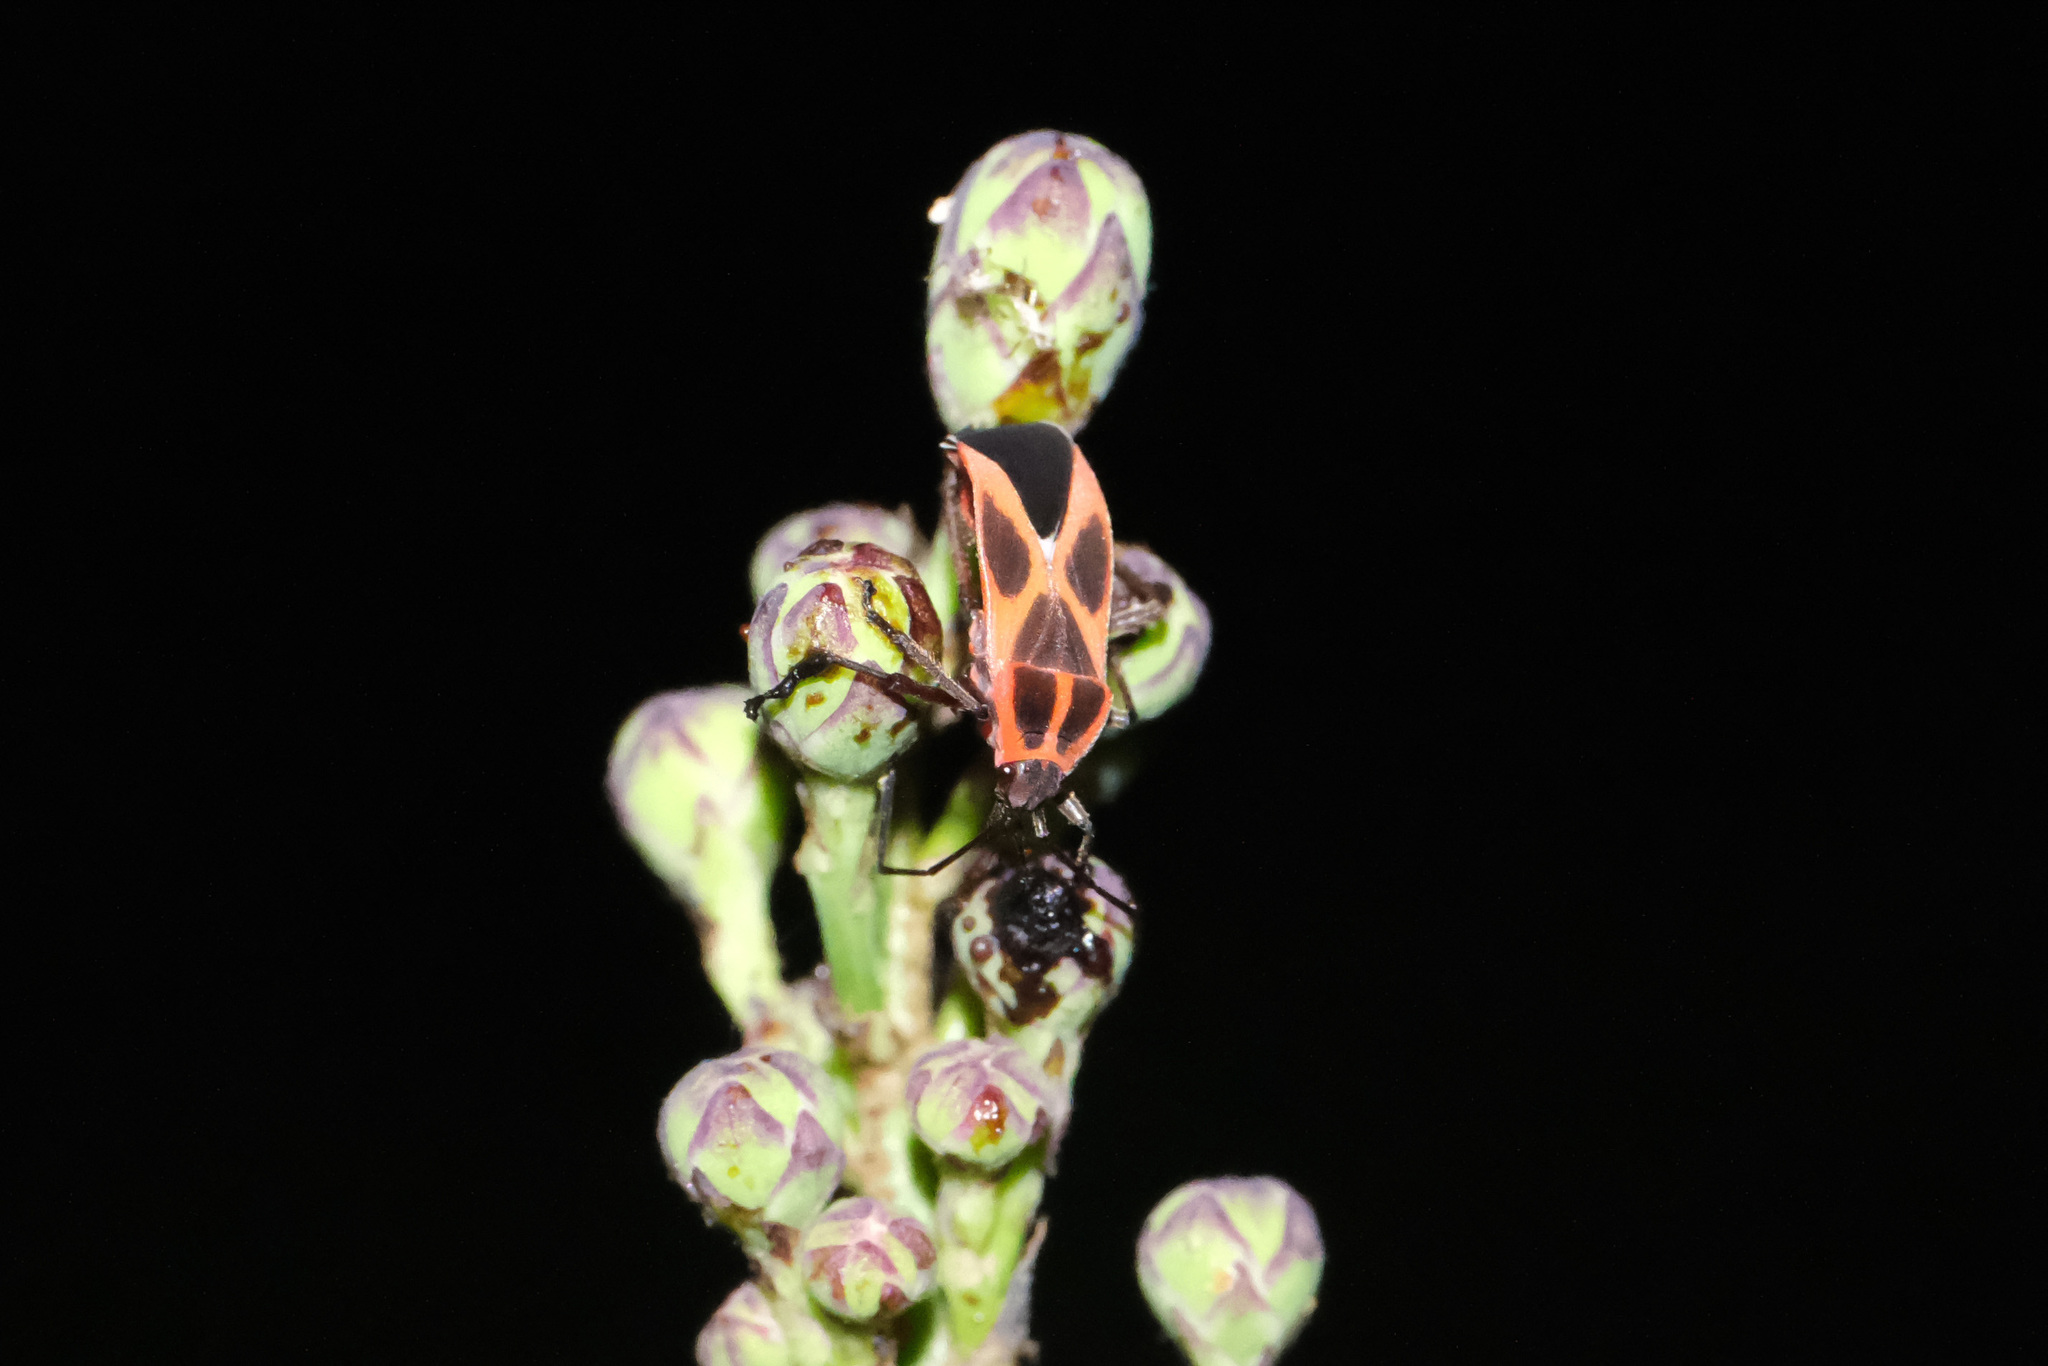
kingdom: Animalia
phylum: Arthropoda
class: Insecta
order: Hemiptera
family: Lygaeidae
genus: Tropidothorax
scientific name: Tropidothorax cruciger
